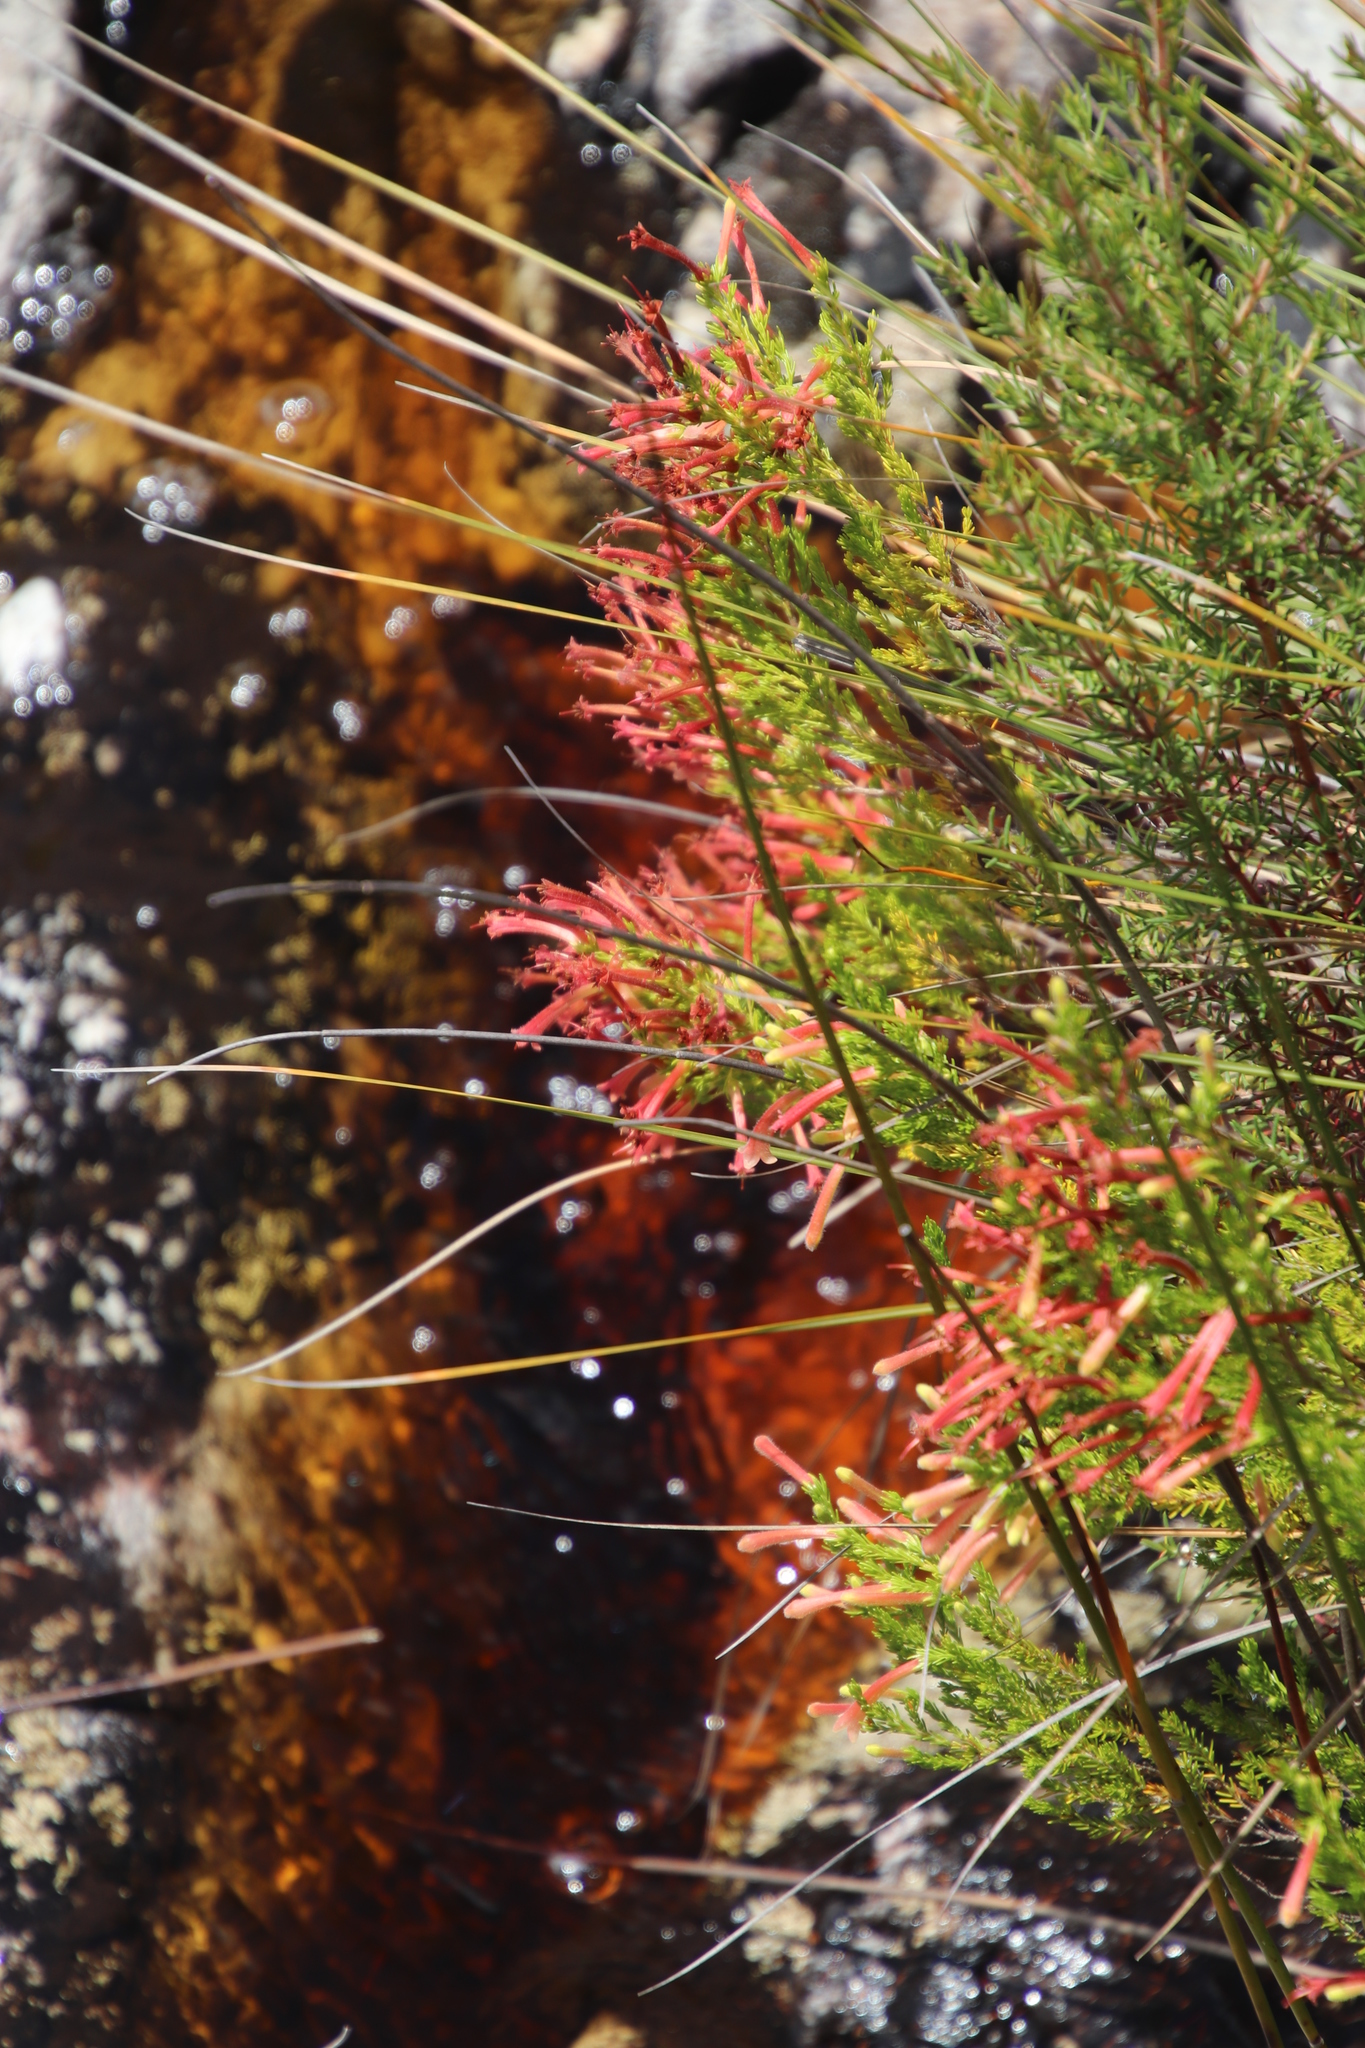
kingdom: Plantae
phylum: Tracheophyta
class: Magnoliopsida
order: Ericales
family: Ericaceae
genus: Erica
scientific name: Erica curviflora
